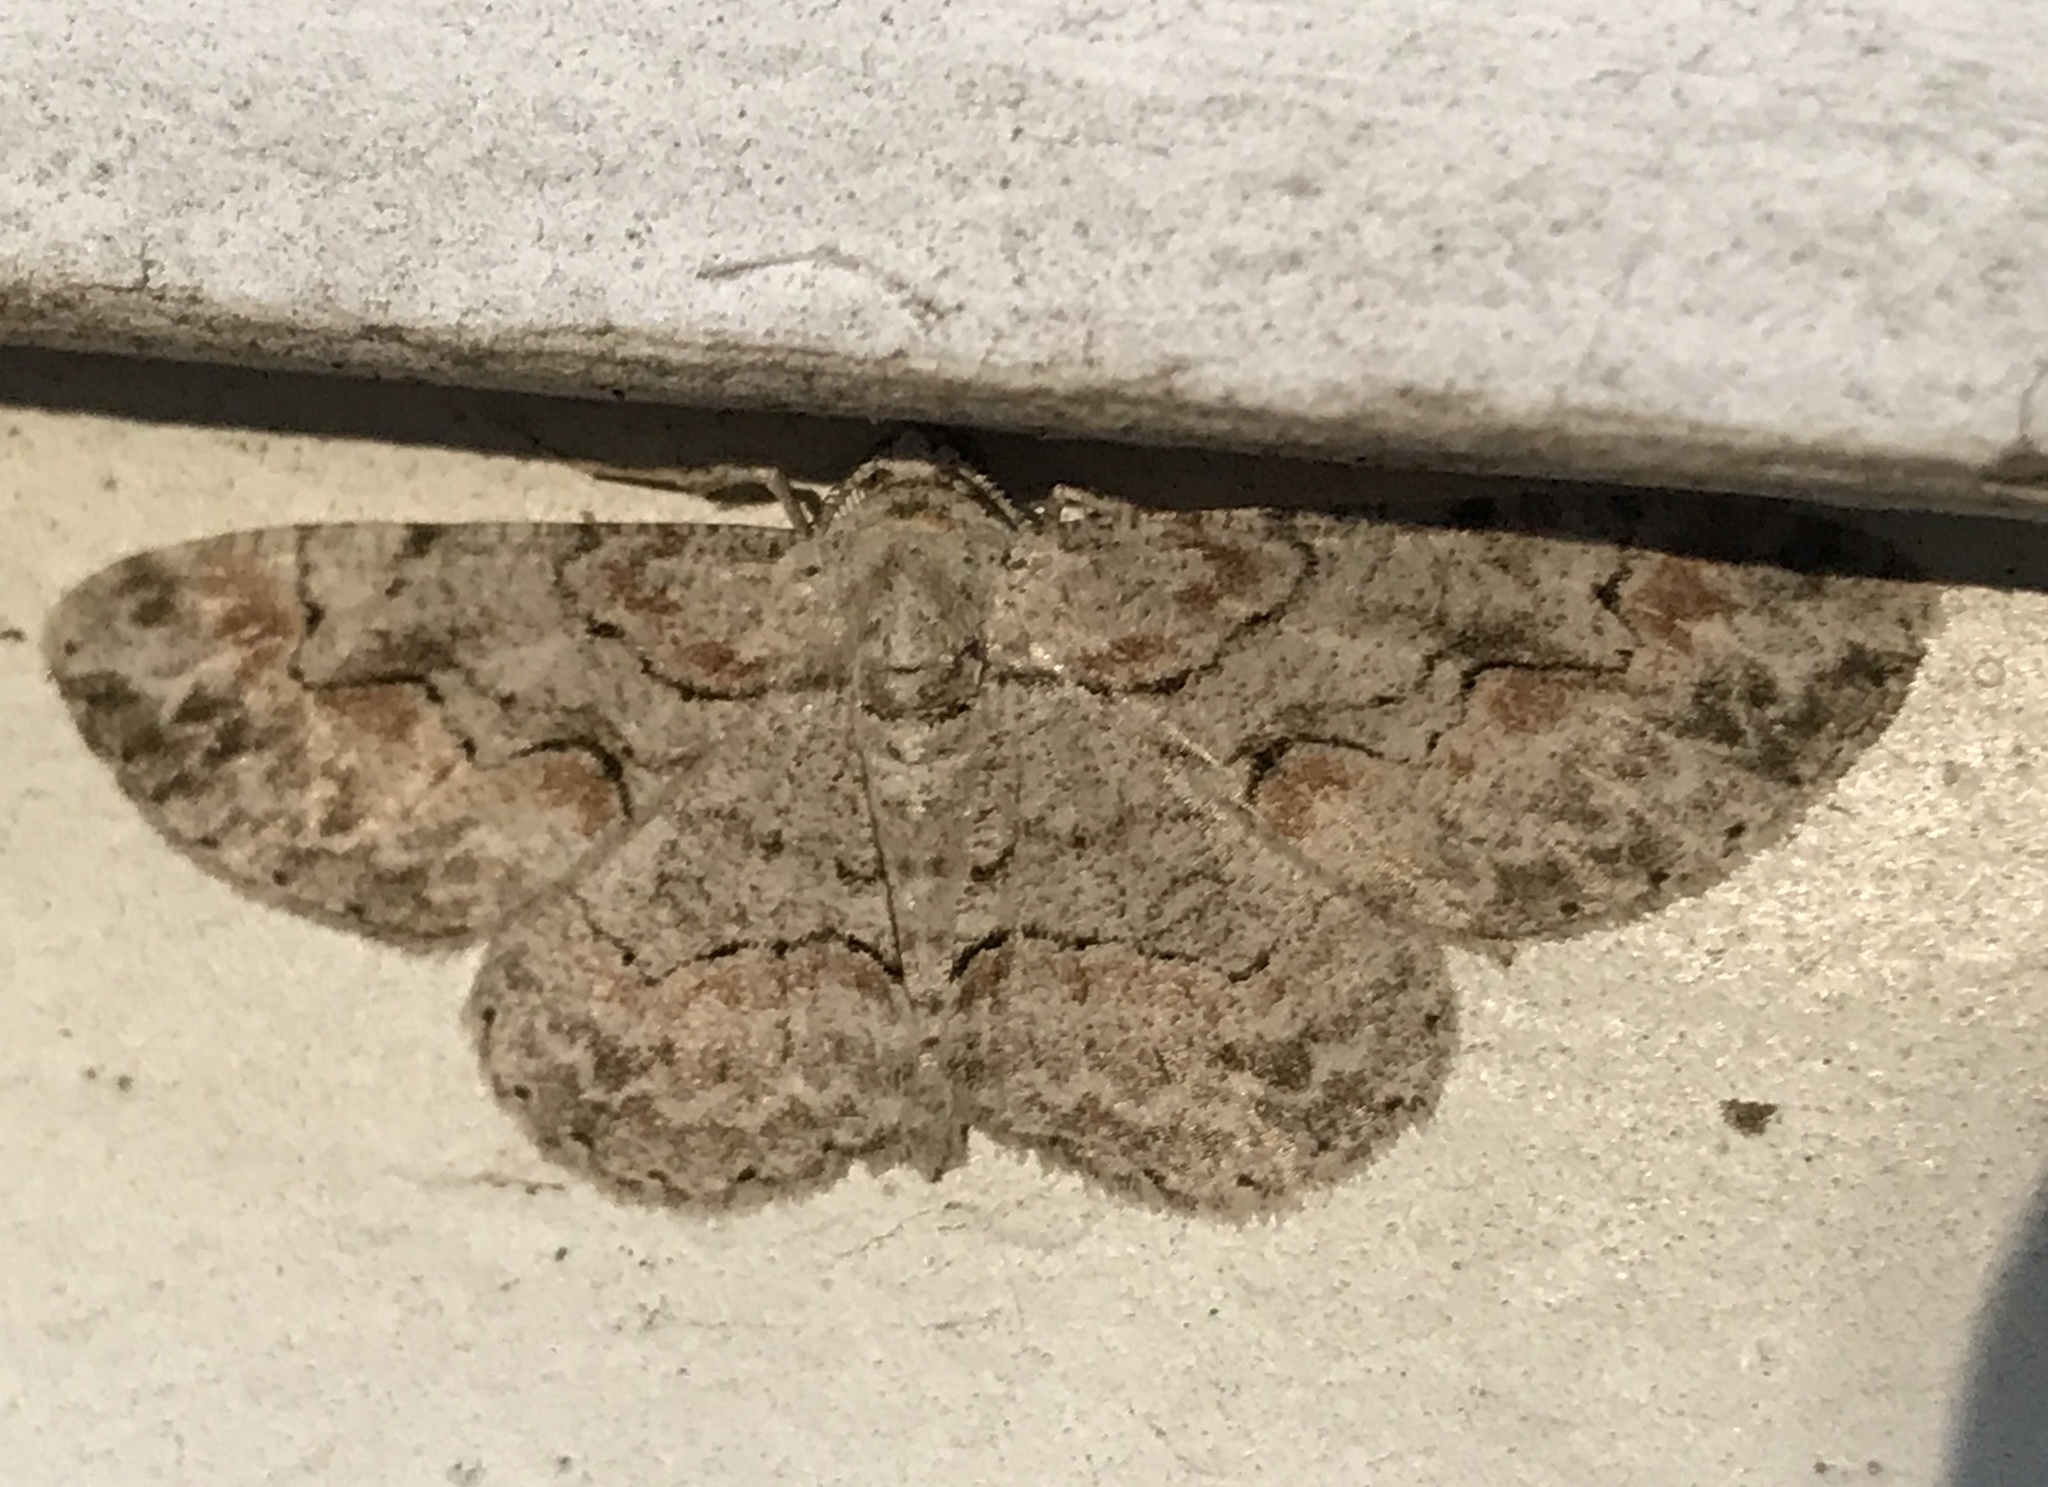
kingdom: Animalia
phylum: Arthropoda
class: Insecta
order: Lepidoptera
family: Geometridae
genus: Iridopsis
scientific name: Iridopsis defectaria
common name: Brown-shaded gray
